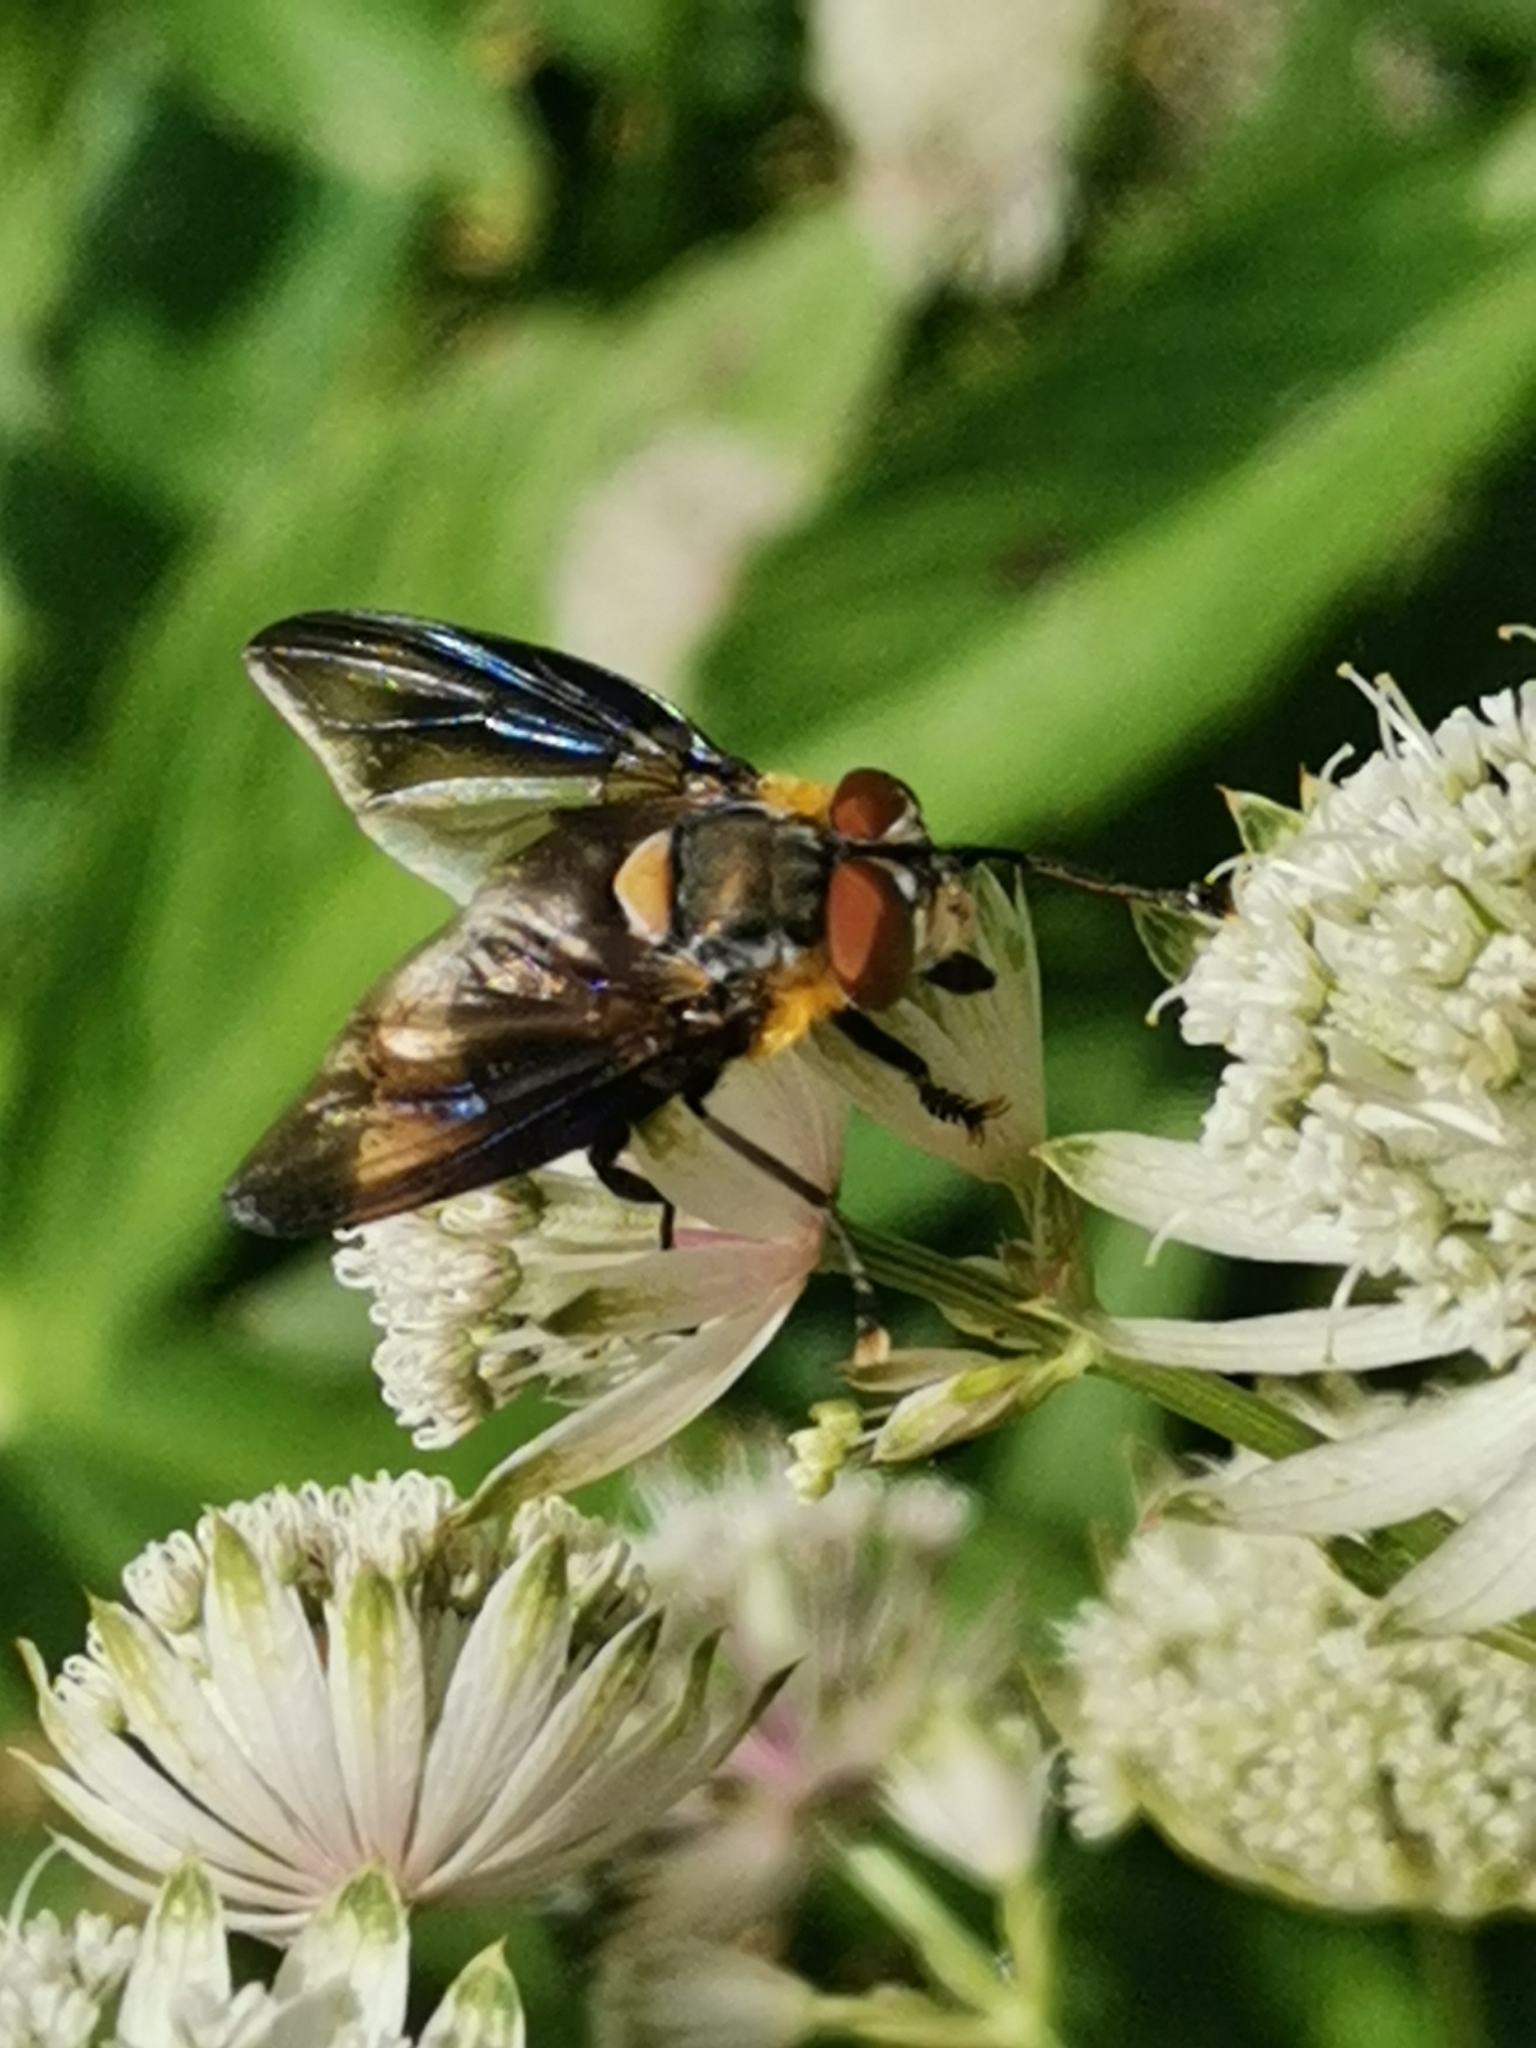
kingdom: Animalia
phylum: Arthropoda
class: Insecta
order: Diptera
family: Tachinidae
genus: Phasia
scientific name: Phasia hemiptera
